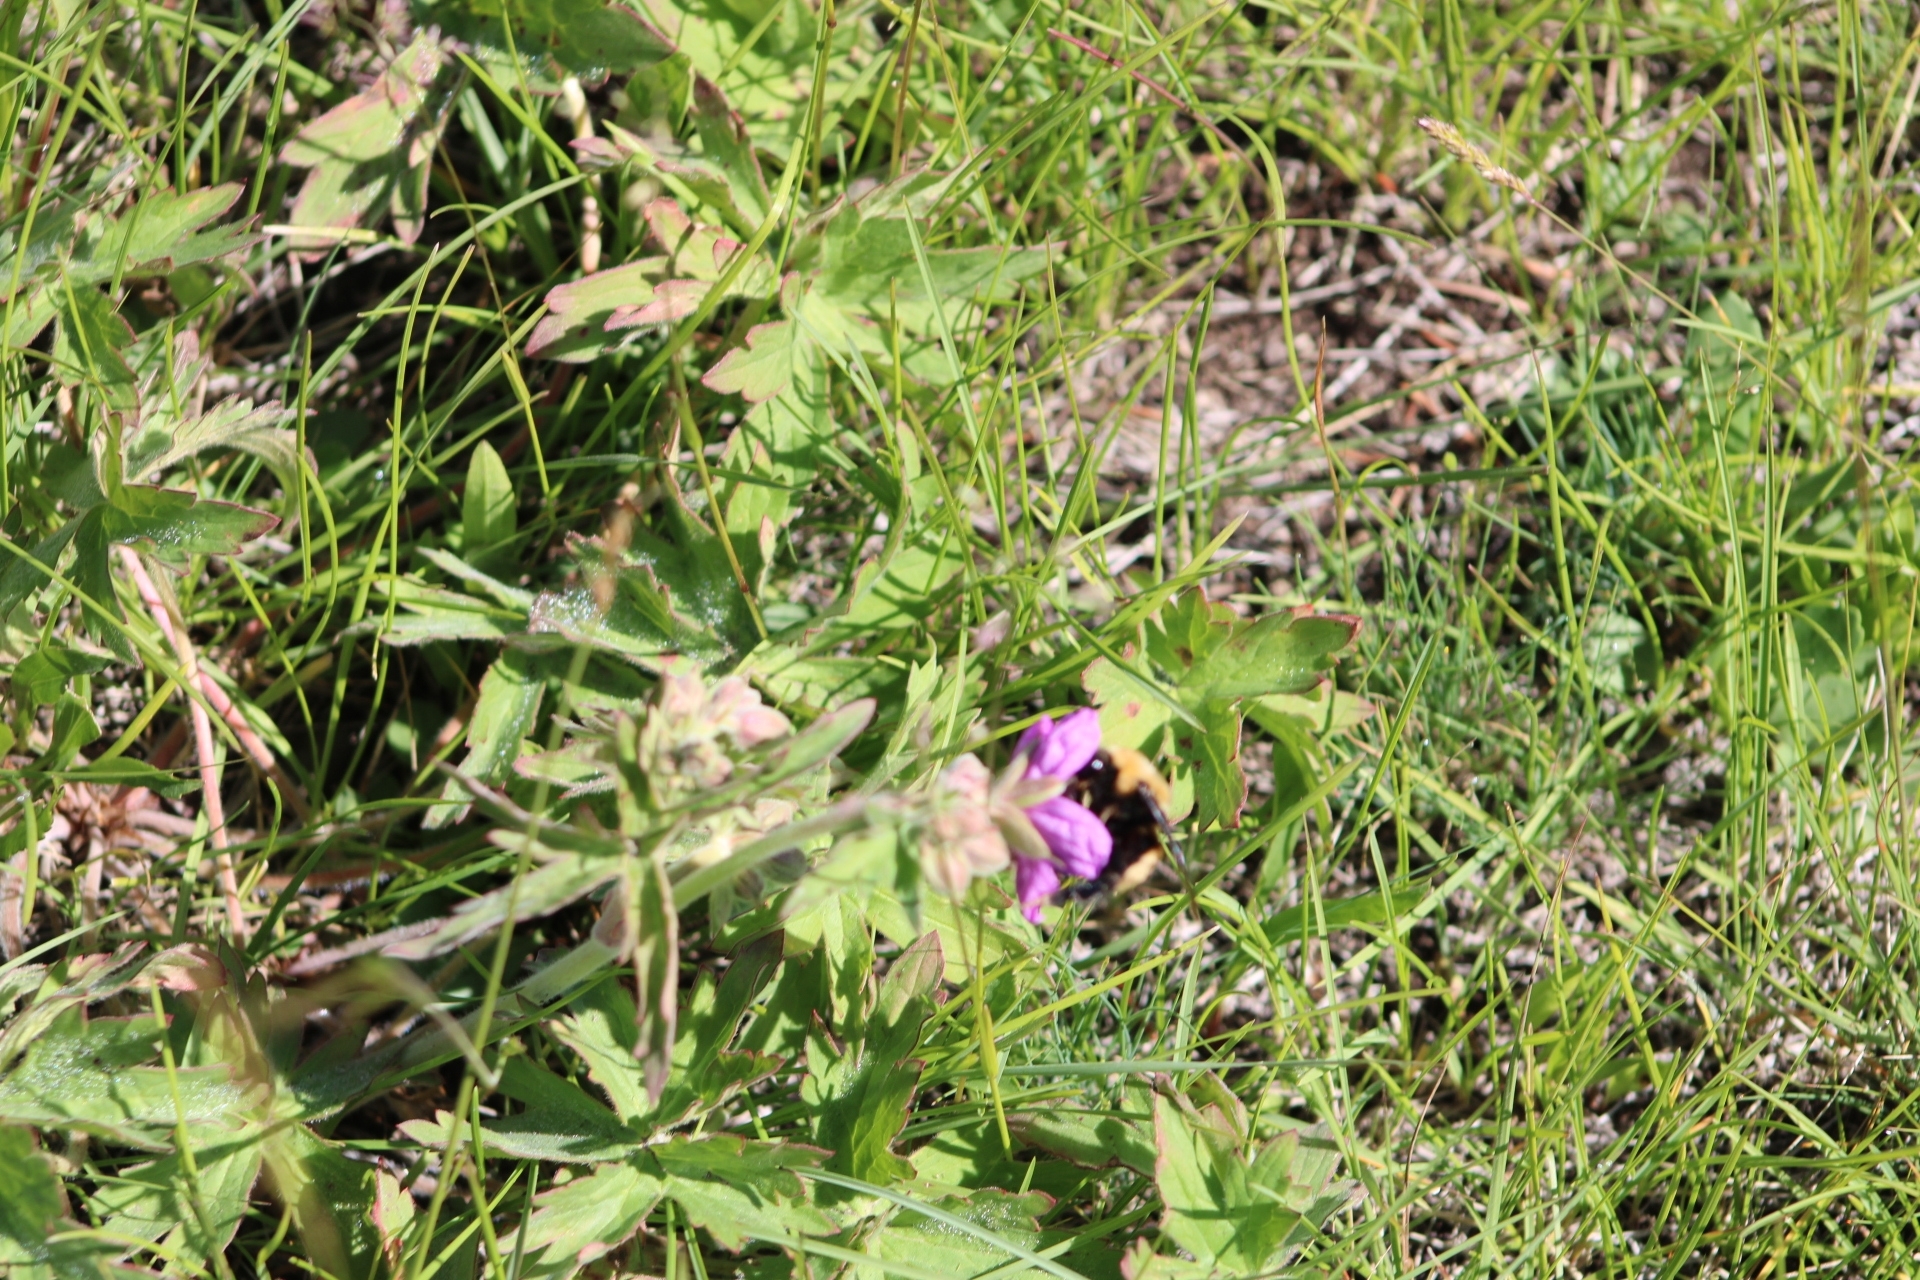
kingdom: Animalia
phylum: Arthropoda
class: Insecta
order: Hymenoptera
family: Apidae
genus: Bombus
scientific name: Bombus nevadensis
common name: Nevada bumble bee
